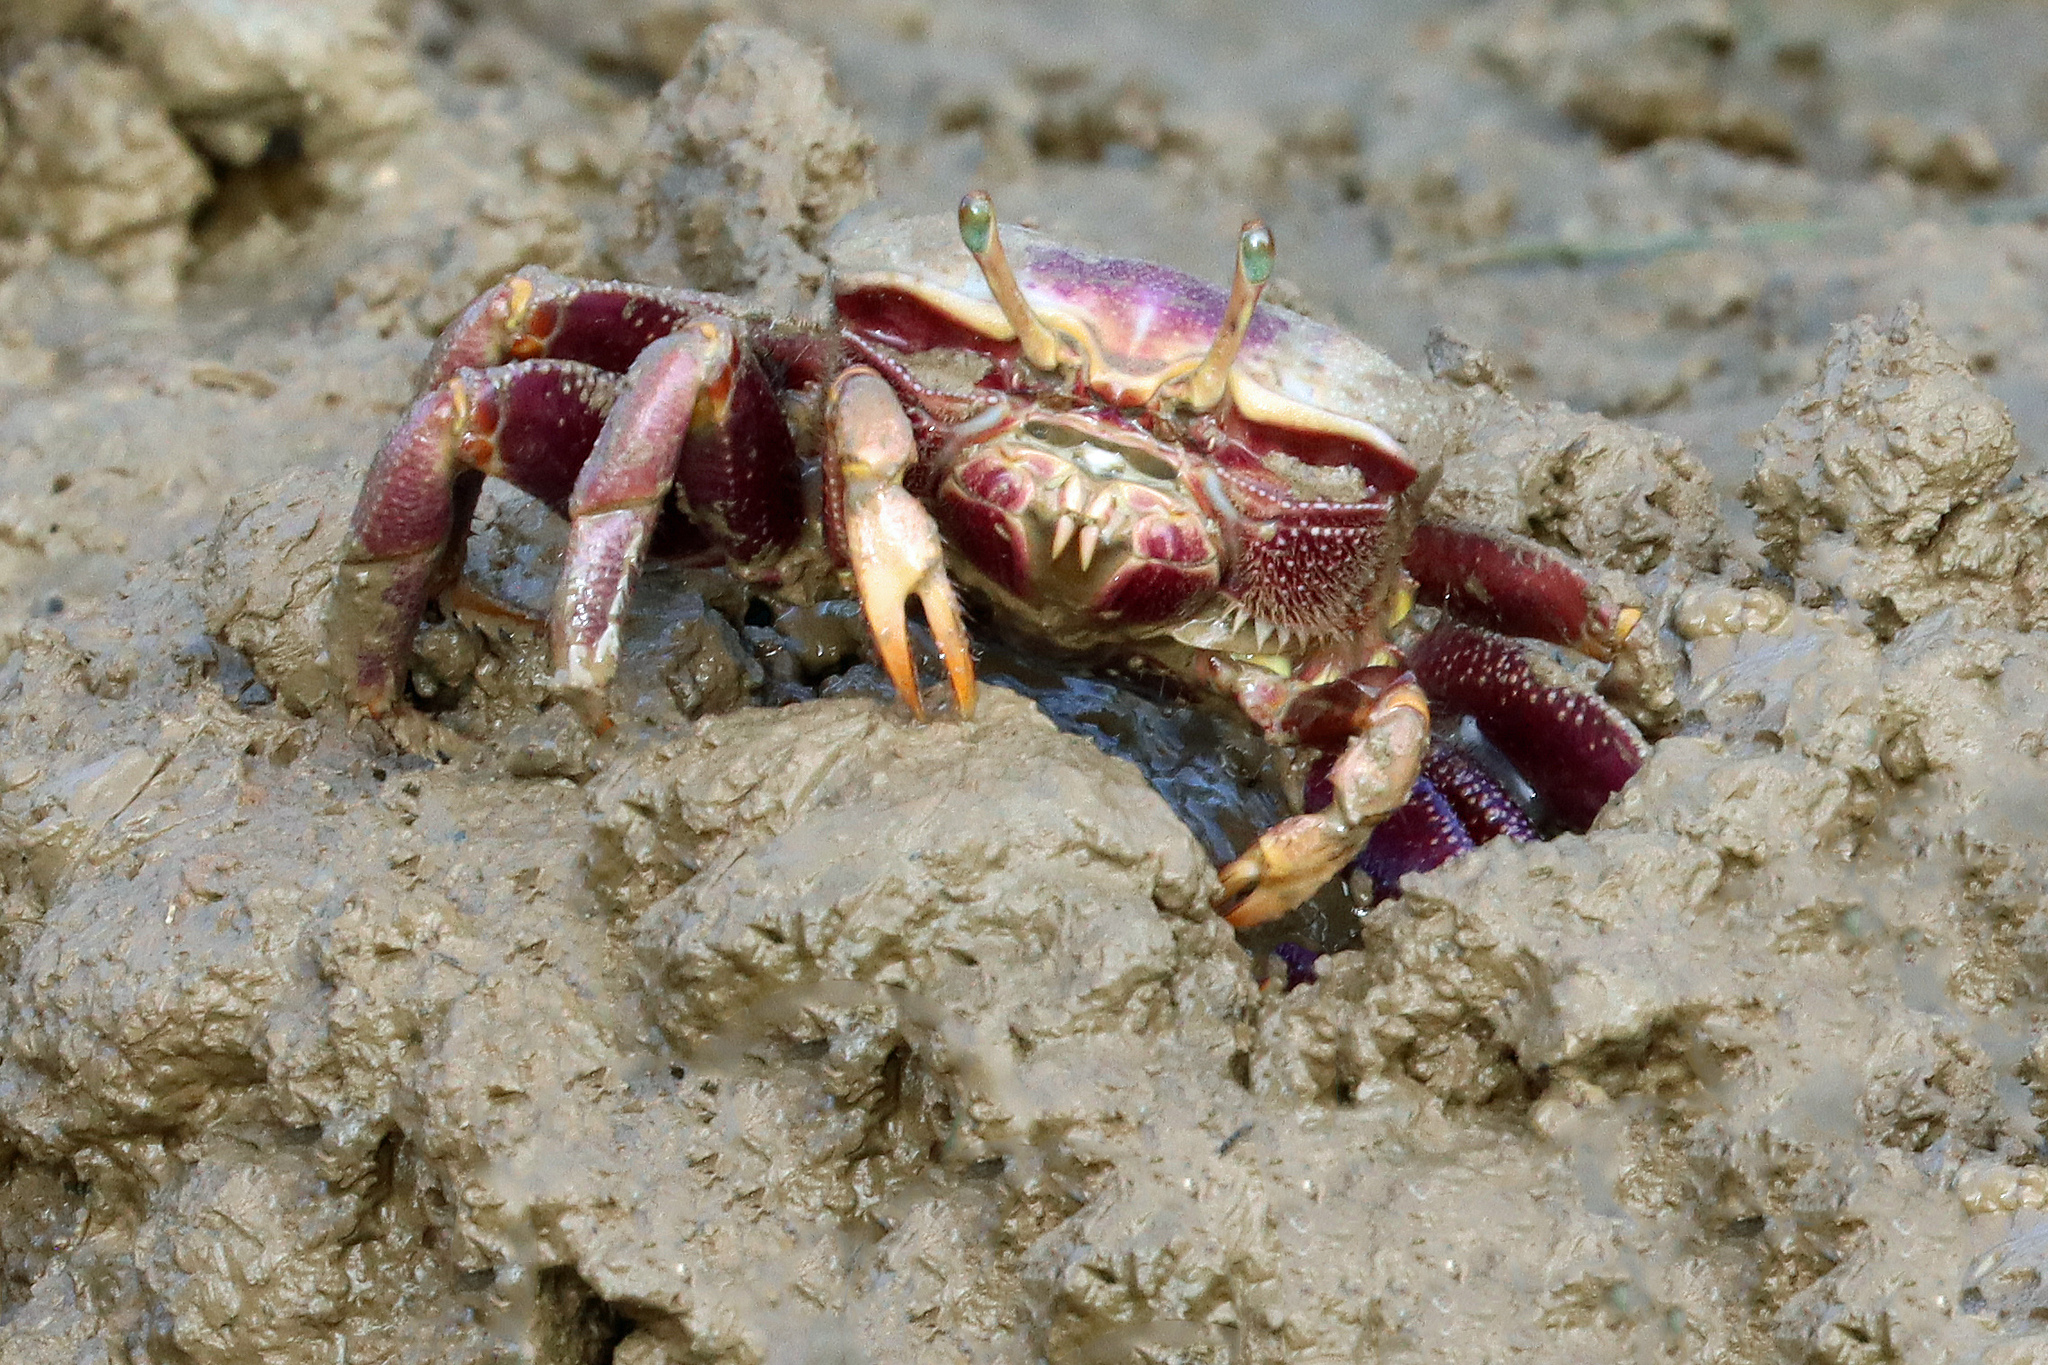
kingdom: Animalia
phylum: Arthropoda
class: Malacostraca
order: Decapoda
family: Ocypodidae
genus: Afruca
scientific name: Afruca tangeri
